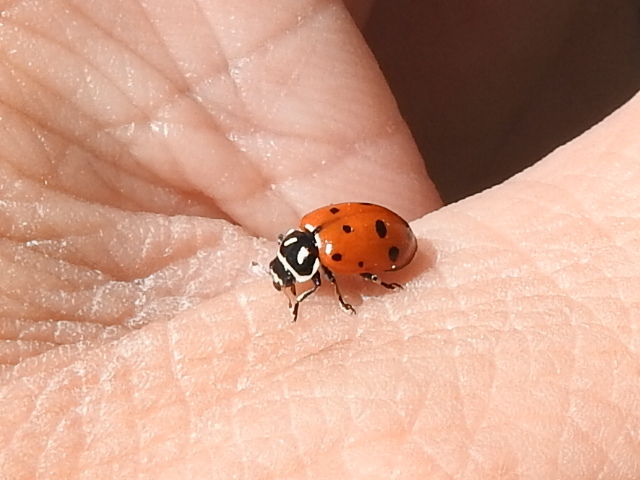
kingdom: Animalia
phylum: Arthropoda
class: Insecta
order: Coleoptera
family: Coccinellidae
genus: Hippodamia
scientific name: Hippodamia convergens
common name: Convergent lady beetle
